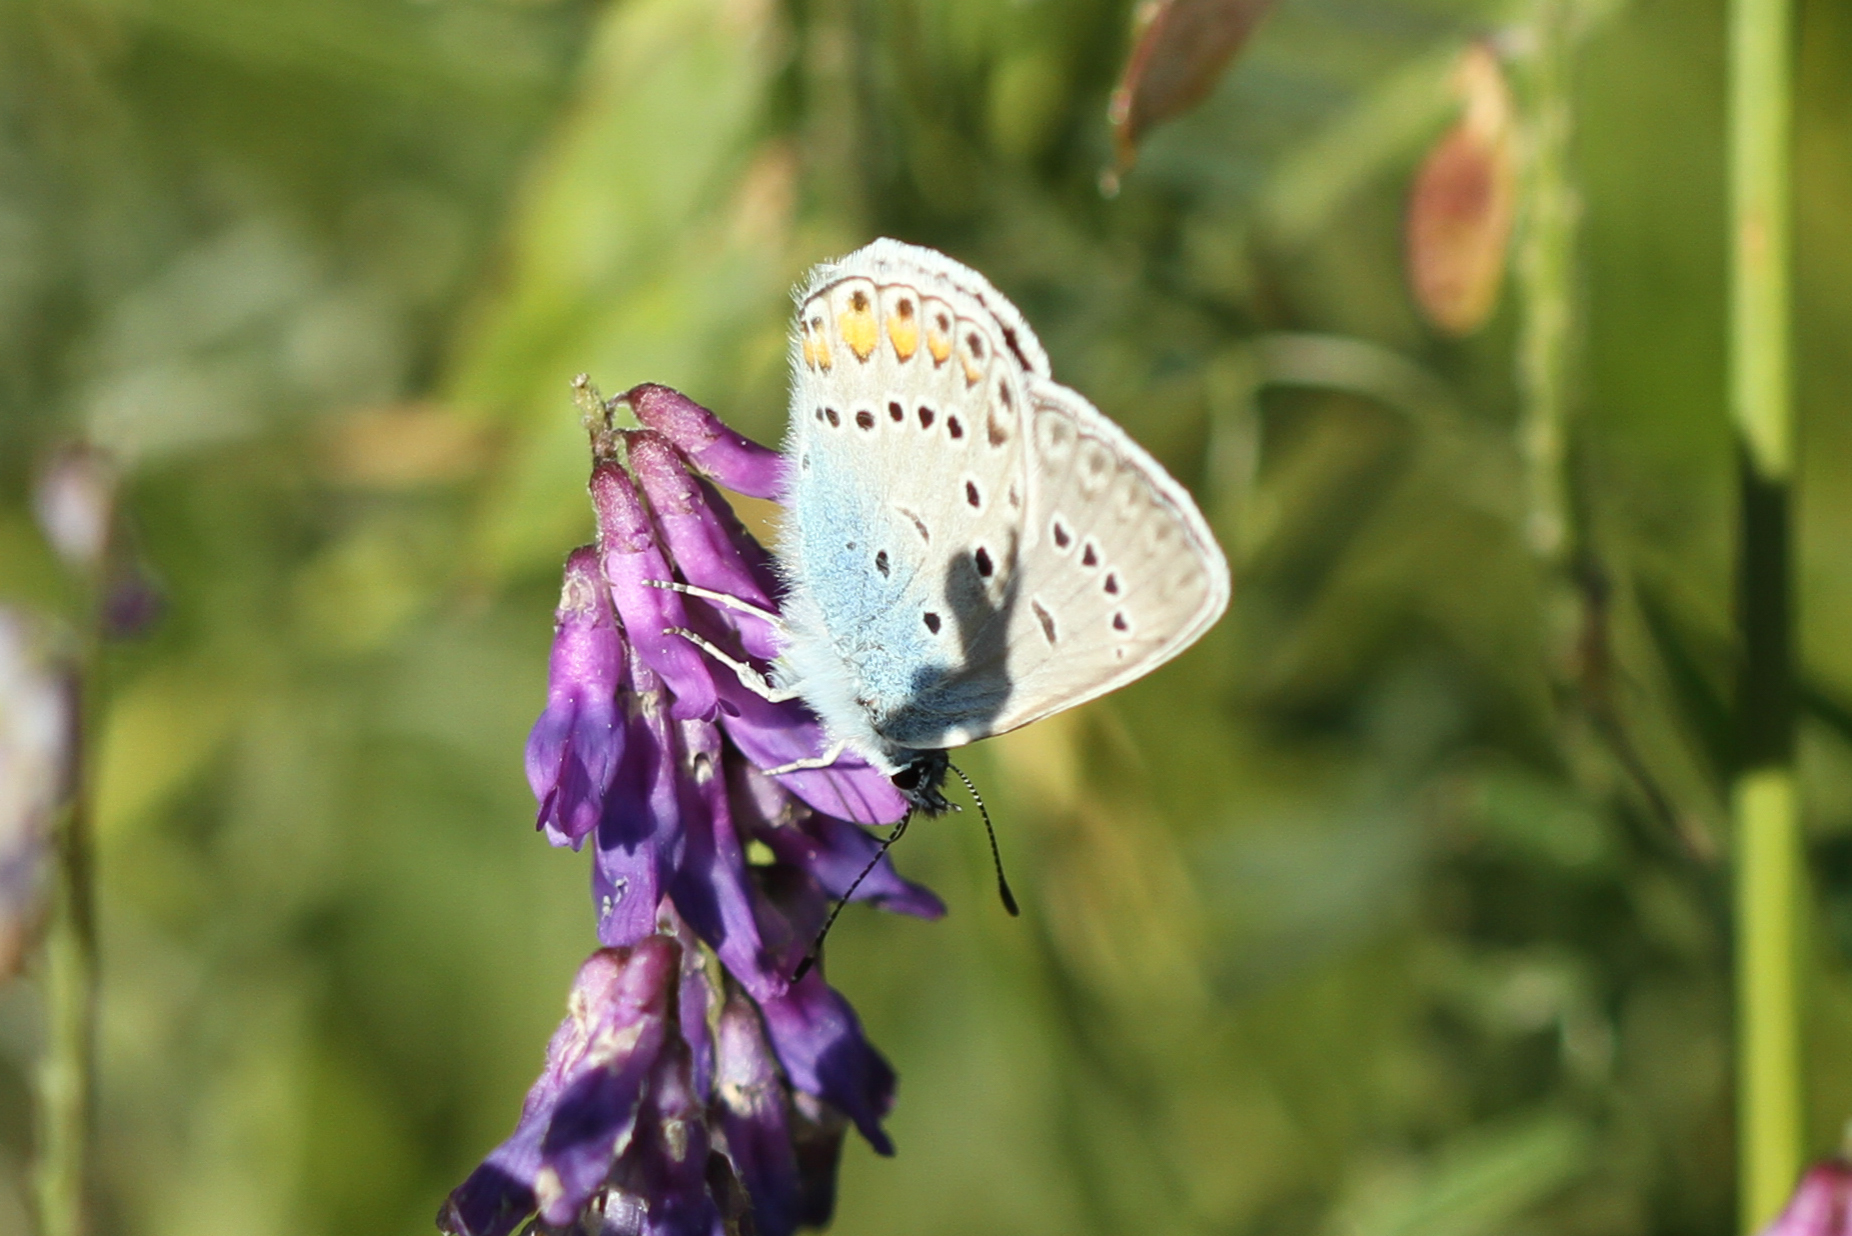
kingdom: Animalia
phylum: Arthropoda
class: Insecta
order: Lepidoptera
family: Lycaenidae
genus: Plebejus
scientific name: Plebejus amanda
